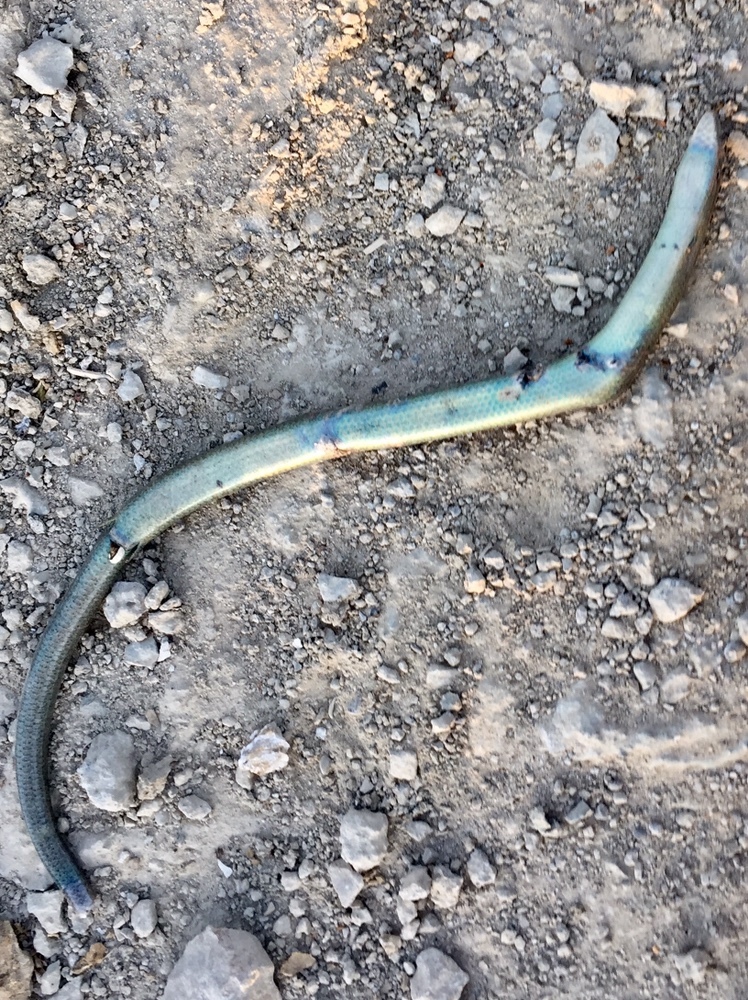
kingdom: Animalia
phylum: Chordata
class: Squamata
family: Scincidae
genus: Chalcides
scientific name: Chalcides chalcides
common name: Italian three-toed skink
